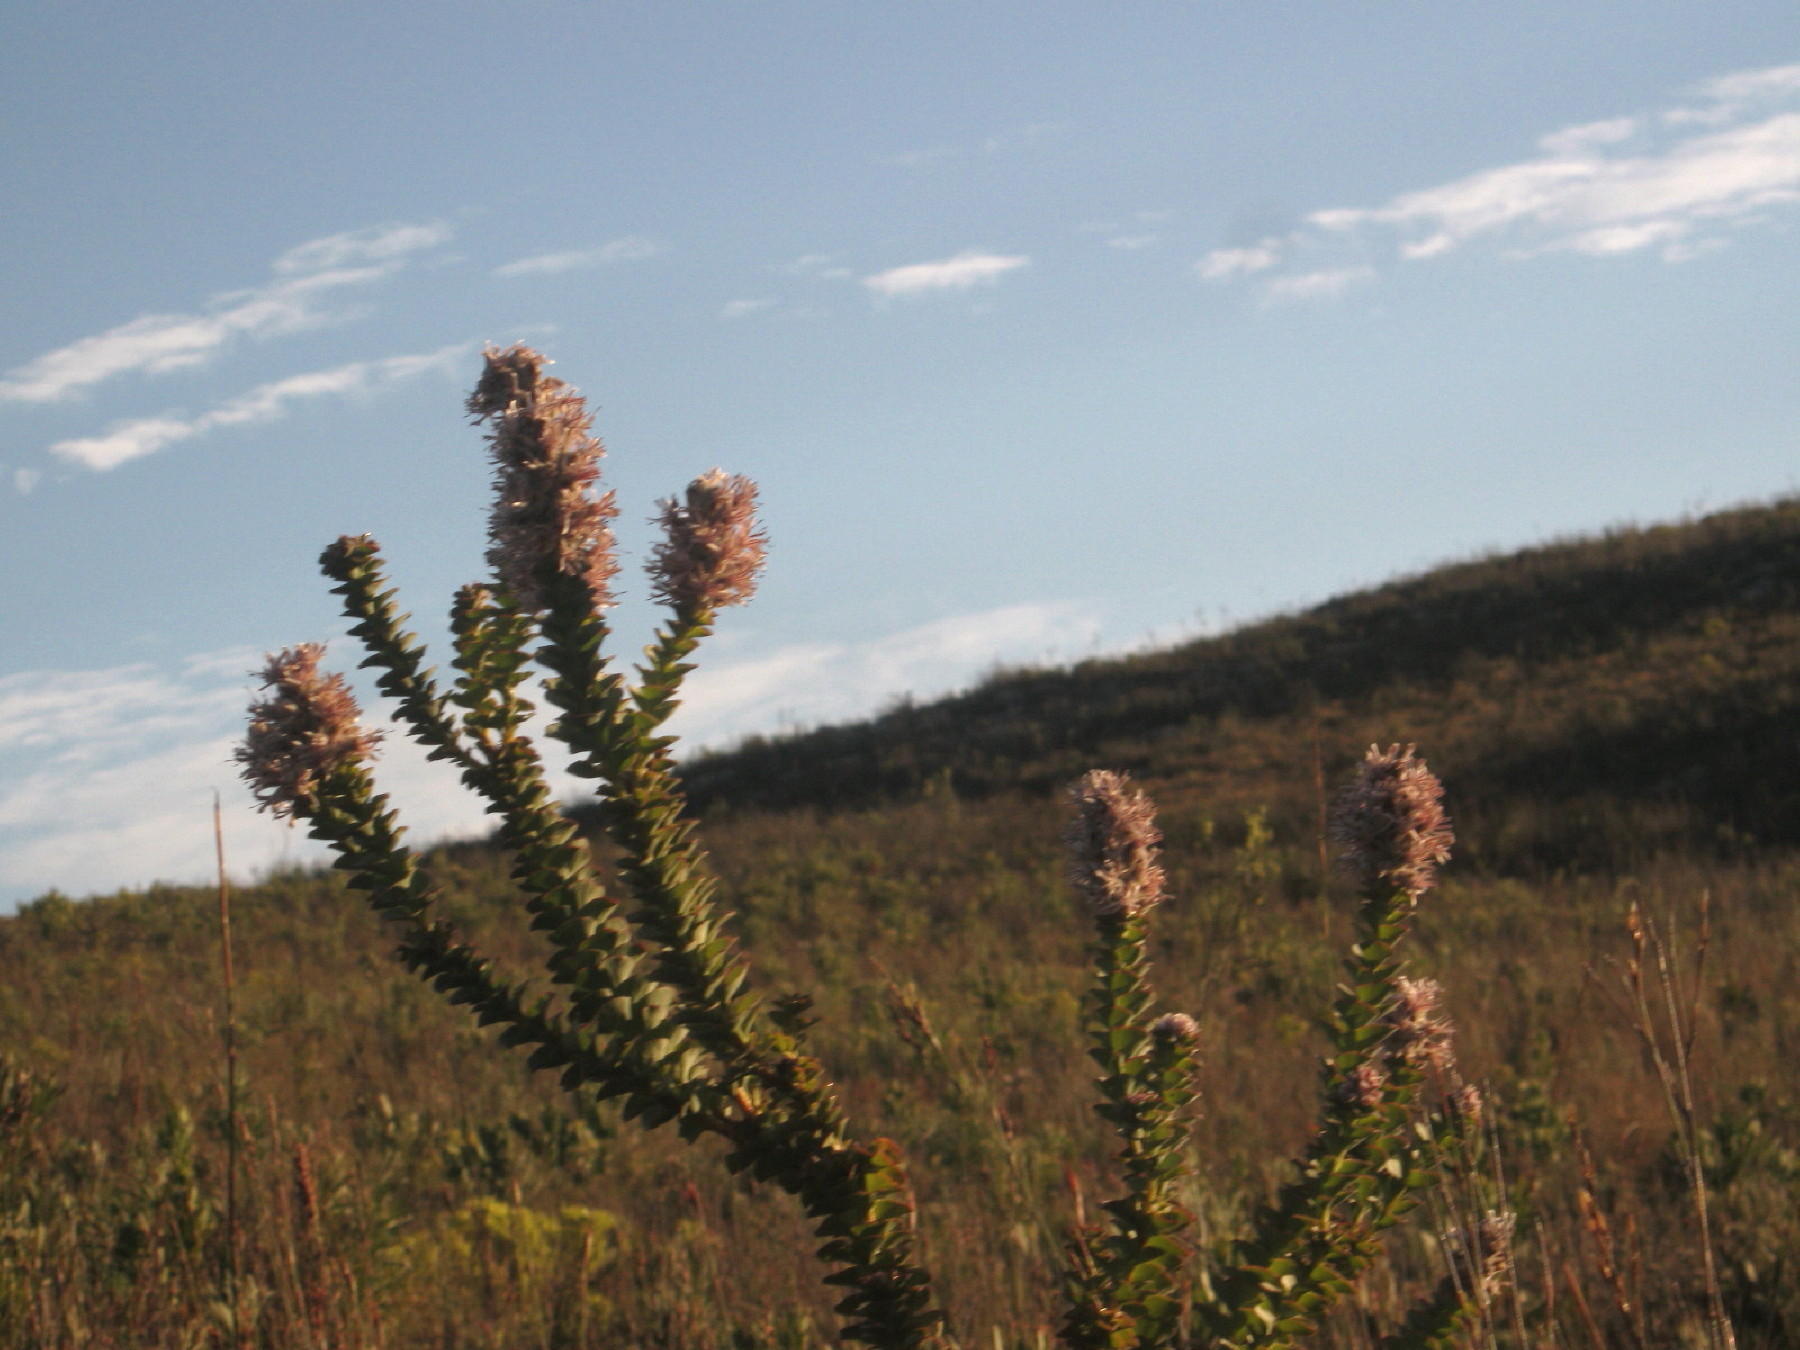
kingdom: Plantae
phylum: Tracheophyta
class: Magnoliopsida
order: Proteales
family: Proteaceae
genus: Paranomus
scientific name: Paranomus spathulatus
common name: Langeberg sceptre
